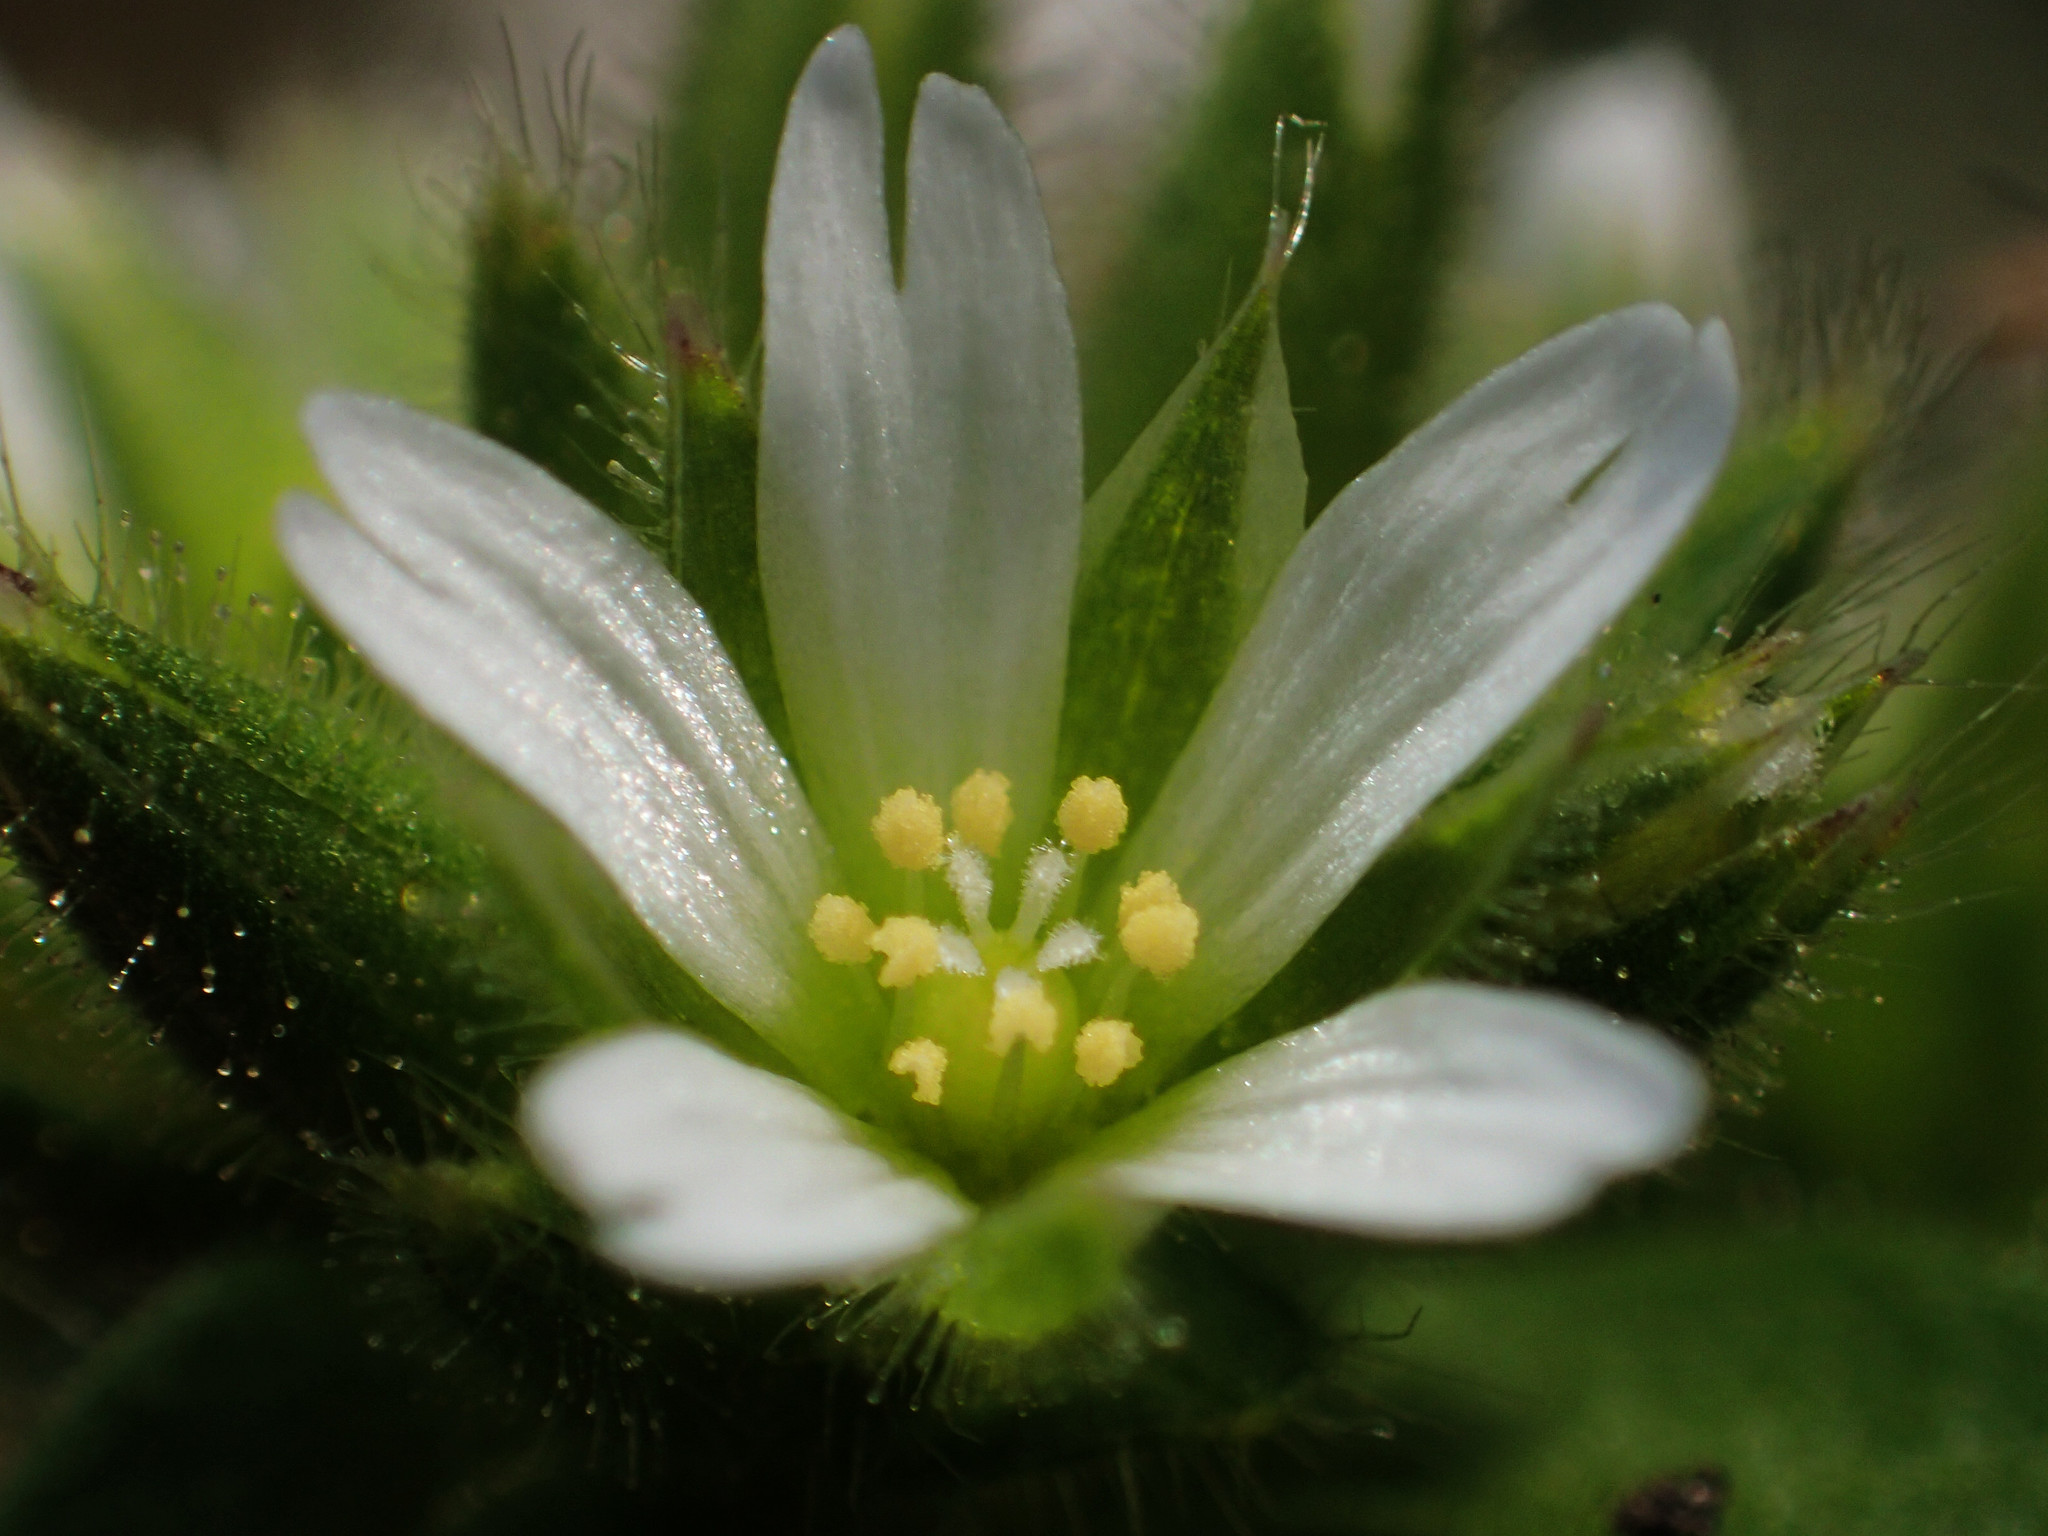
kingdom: Plantae
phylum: Tracheophyta
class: Magnoliopsida
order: Caryophyllales
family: Caryophyllaceae
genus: Cerastium
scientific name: Cerastium glomeratum
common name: Sticky chickweed
